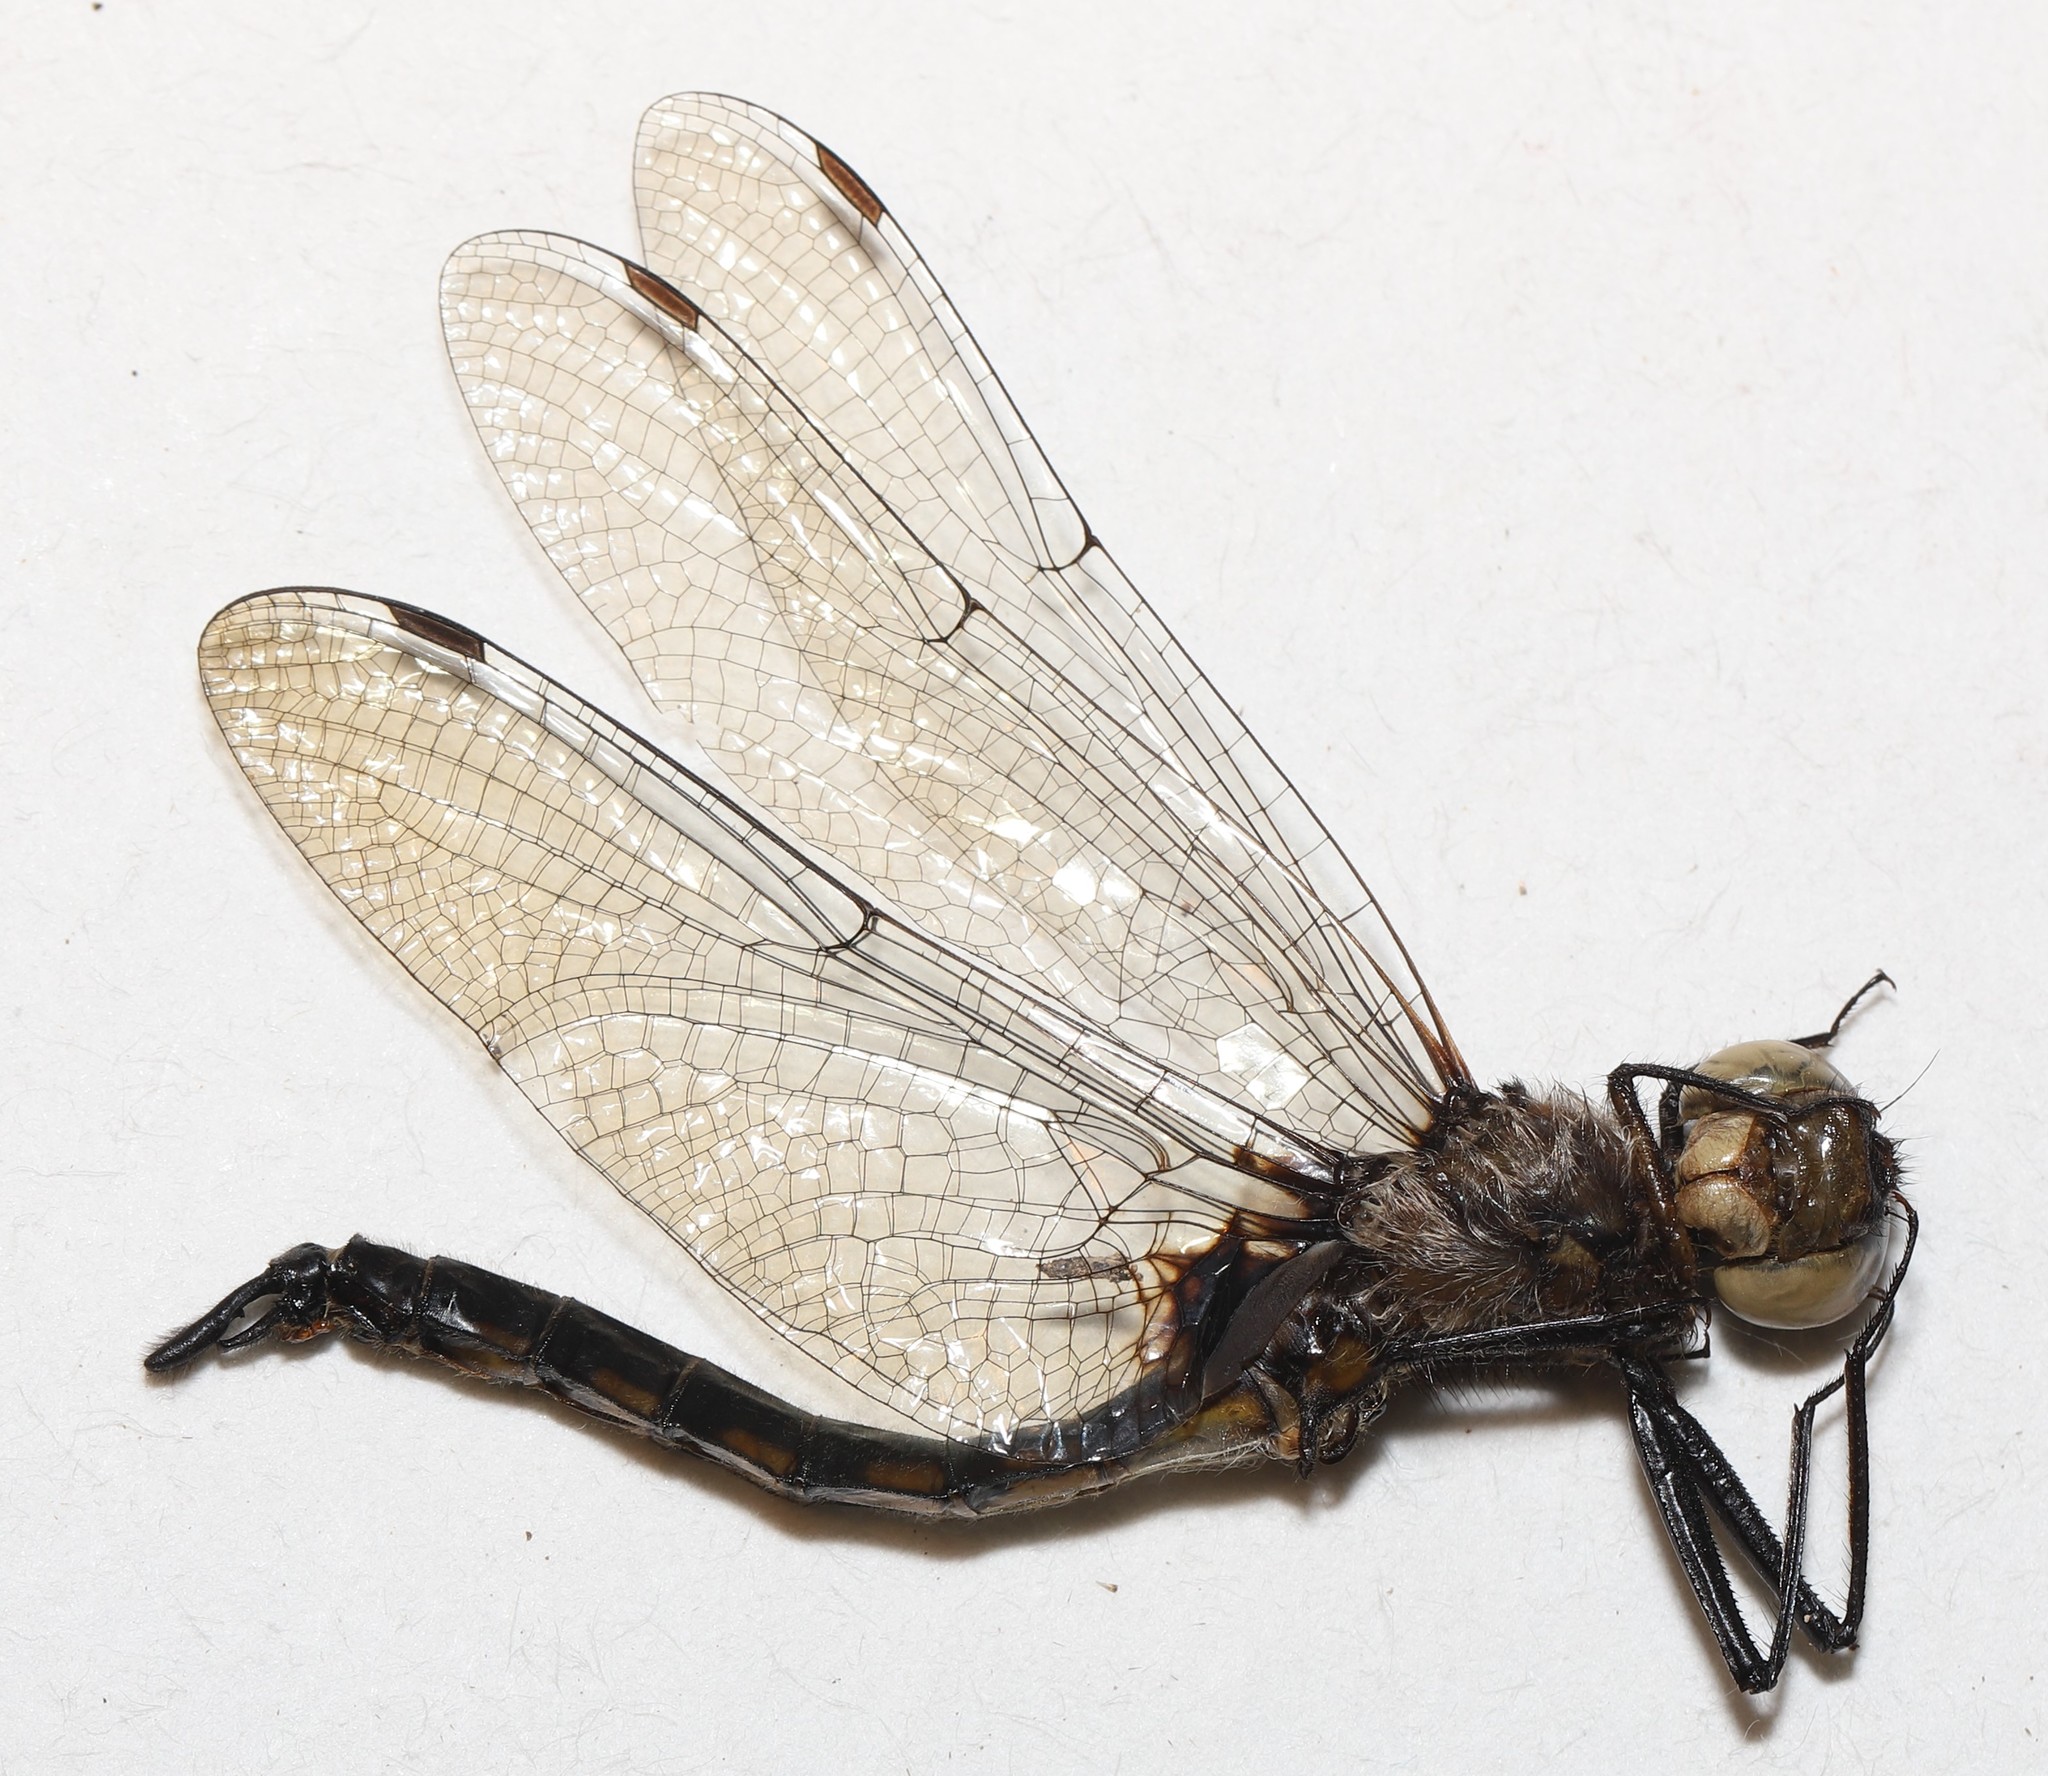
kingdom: Animalia
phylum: Arthropoda
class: Insecta
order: Odonata
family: Corduliidae
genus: Epitheca
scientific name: Epitheca spinigera
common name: Spiny baskettail
